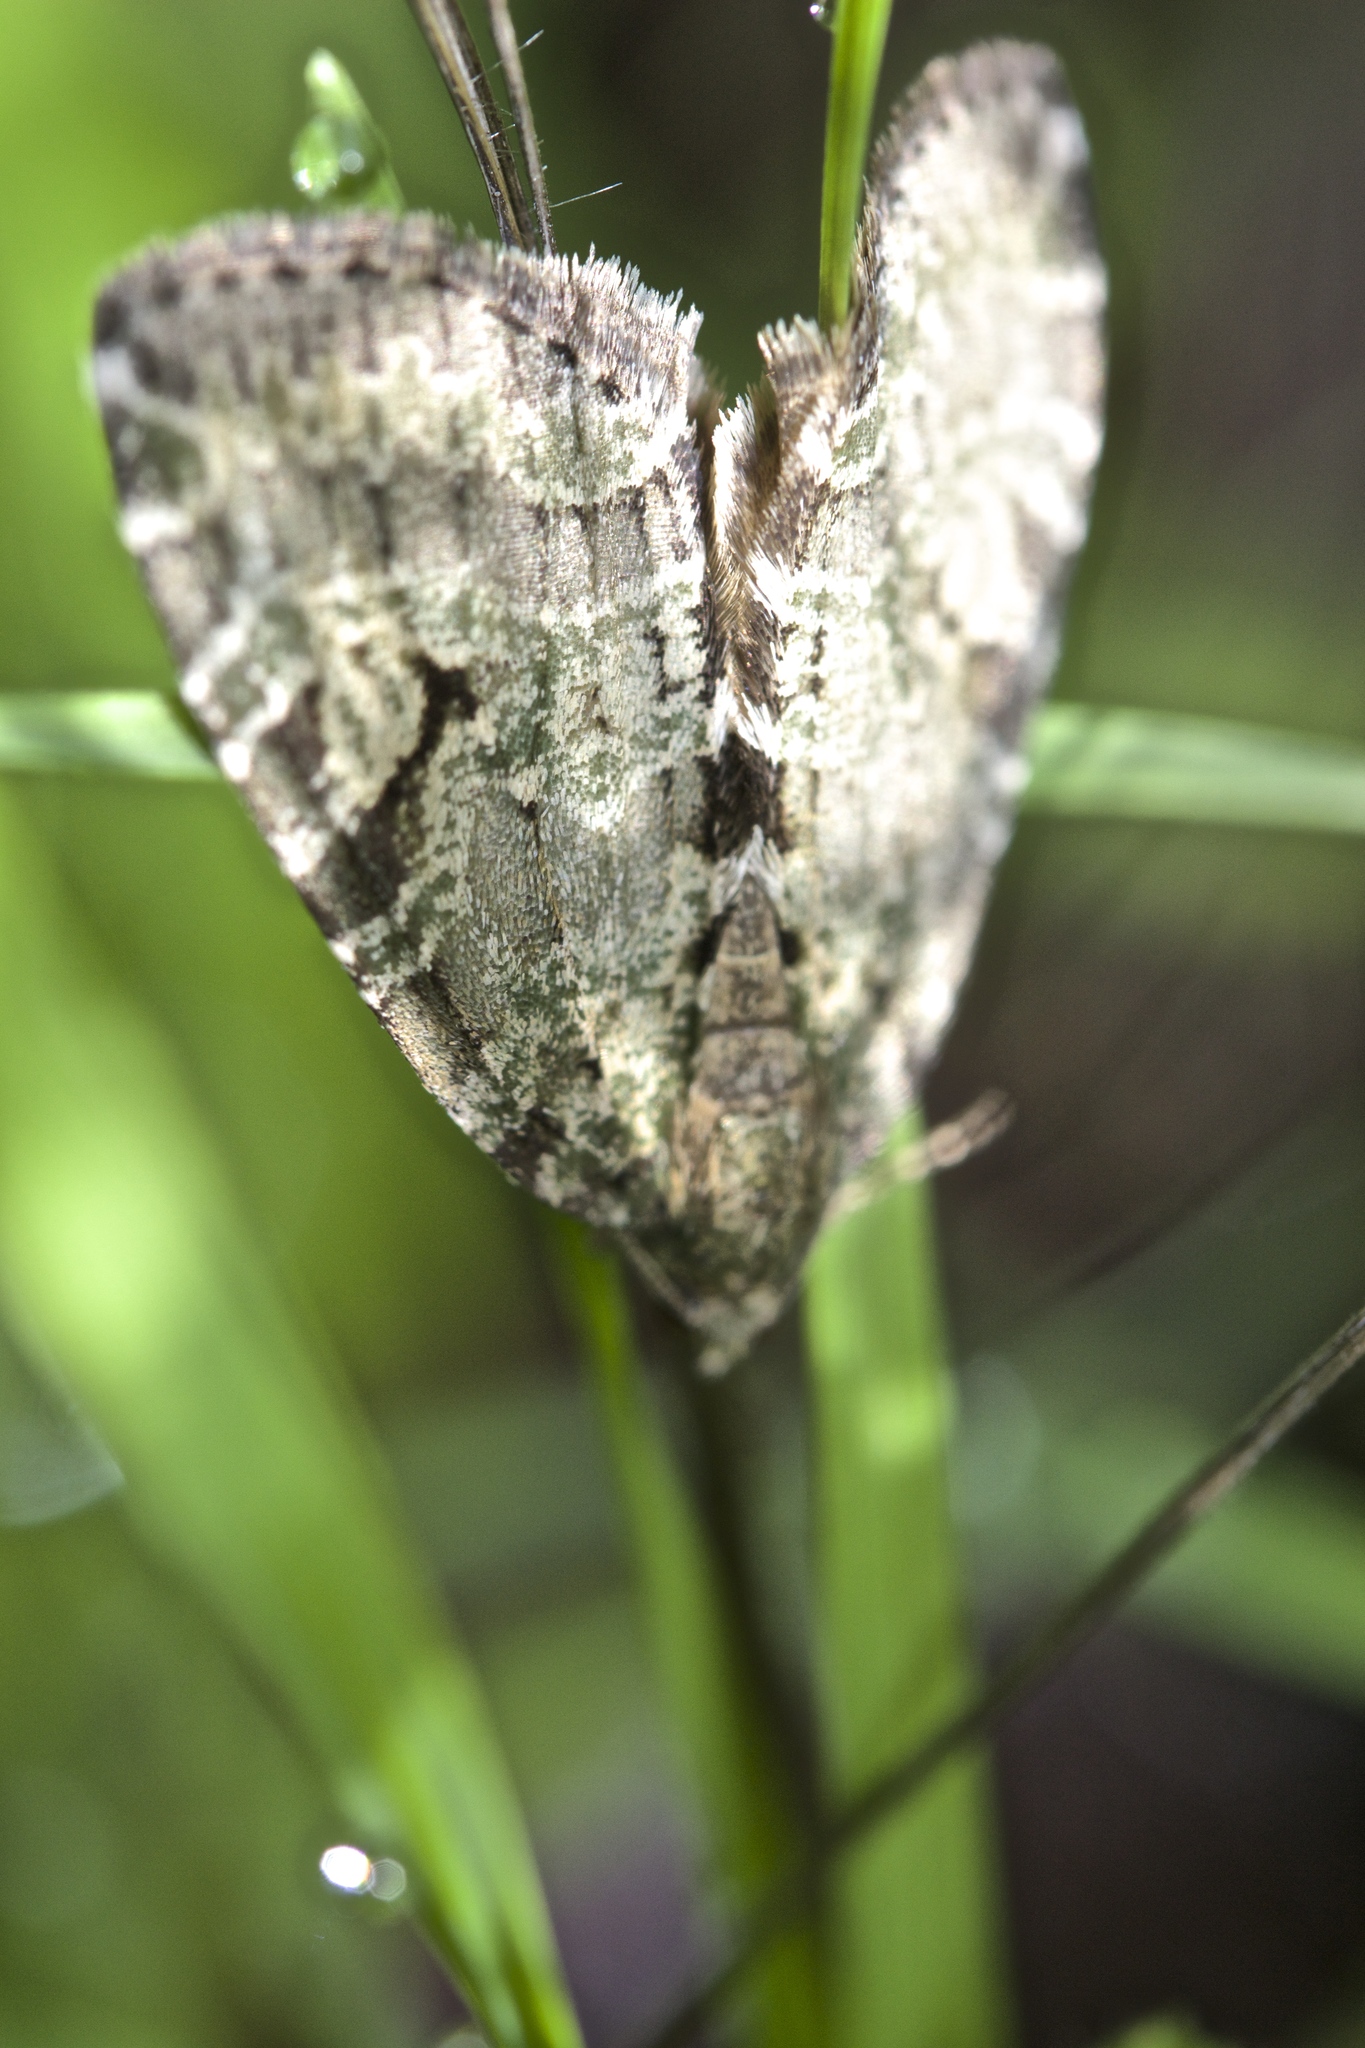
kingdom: Animalia
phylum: Arthropoda
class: Insecta
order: Lepidoptera
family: Geometridae
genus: Hydriomena
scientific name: Hydriomena nubilofasciata
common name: Oak winter highflier moth
